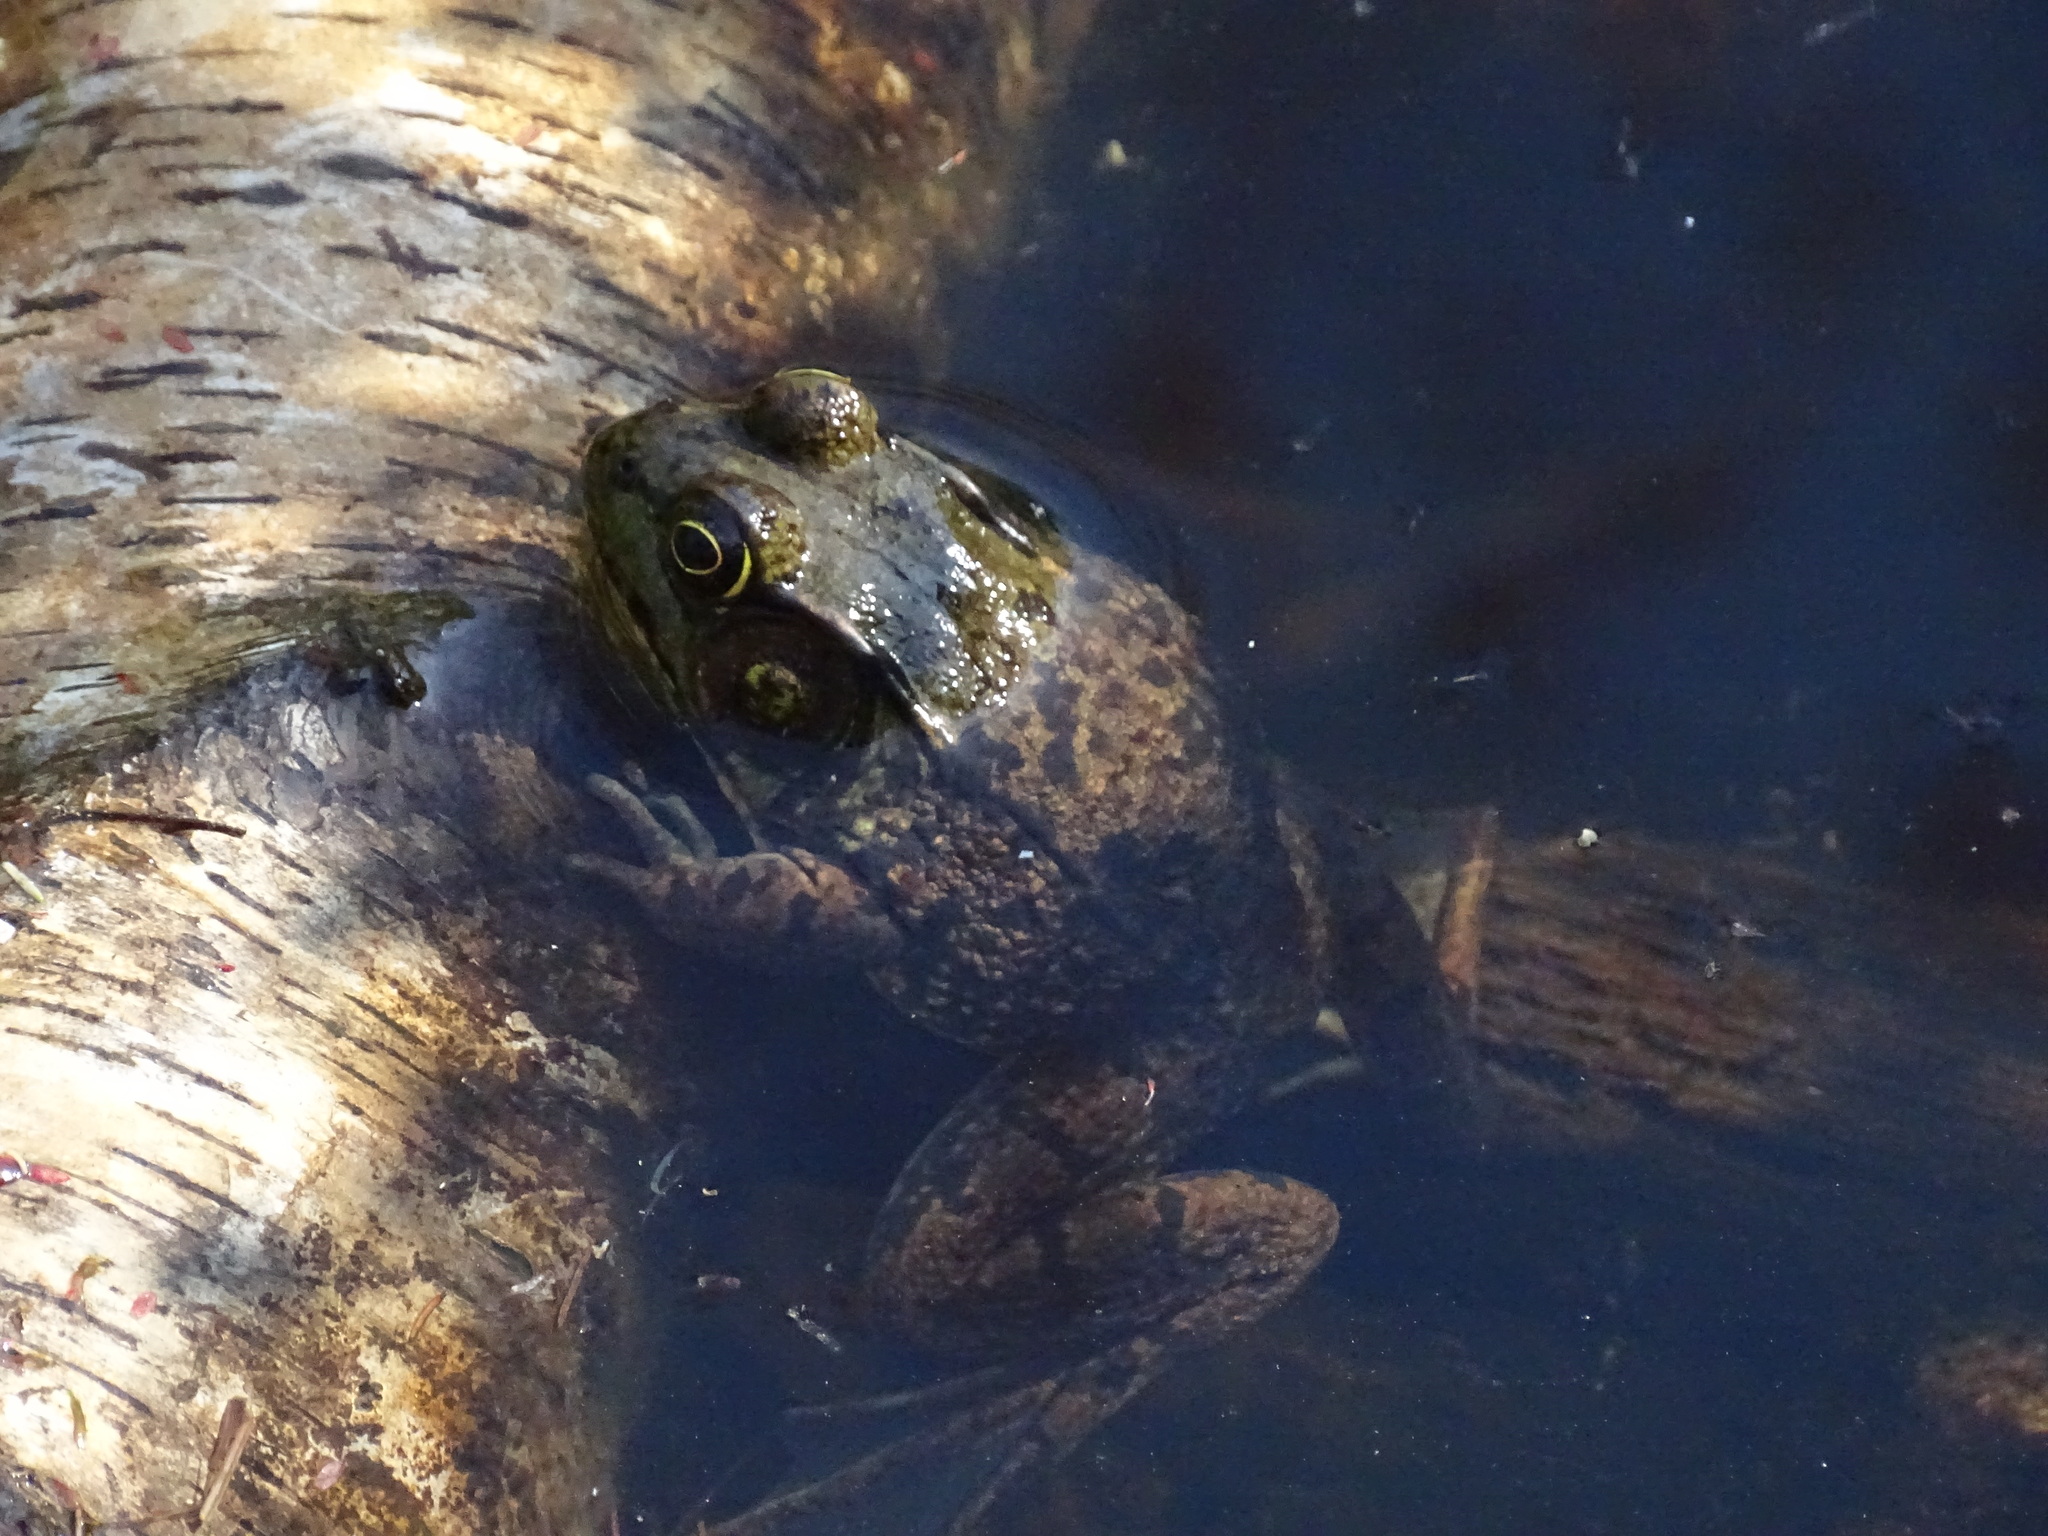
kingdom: Animalia
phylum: Chordata
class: Amphibia
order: Anura
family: Ranidae
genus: Lithobates
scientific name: Lithobates clamitans
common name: Green frog
